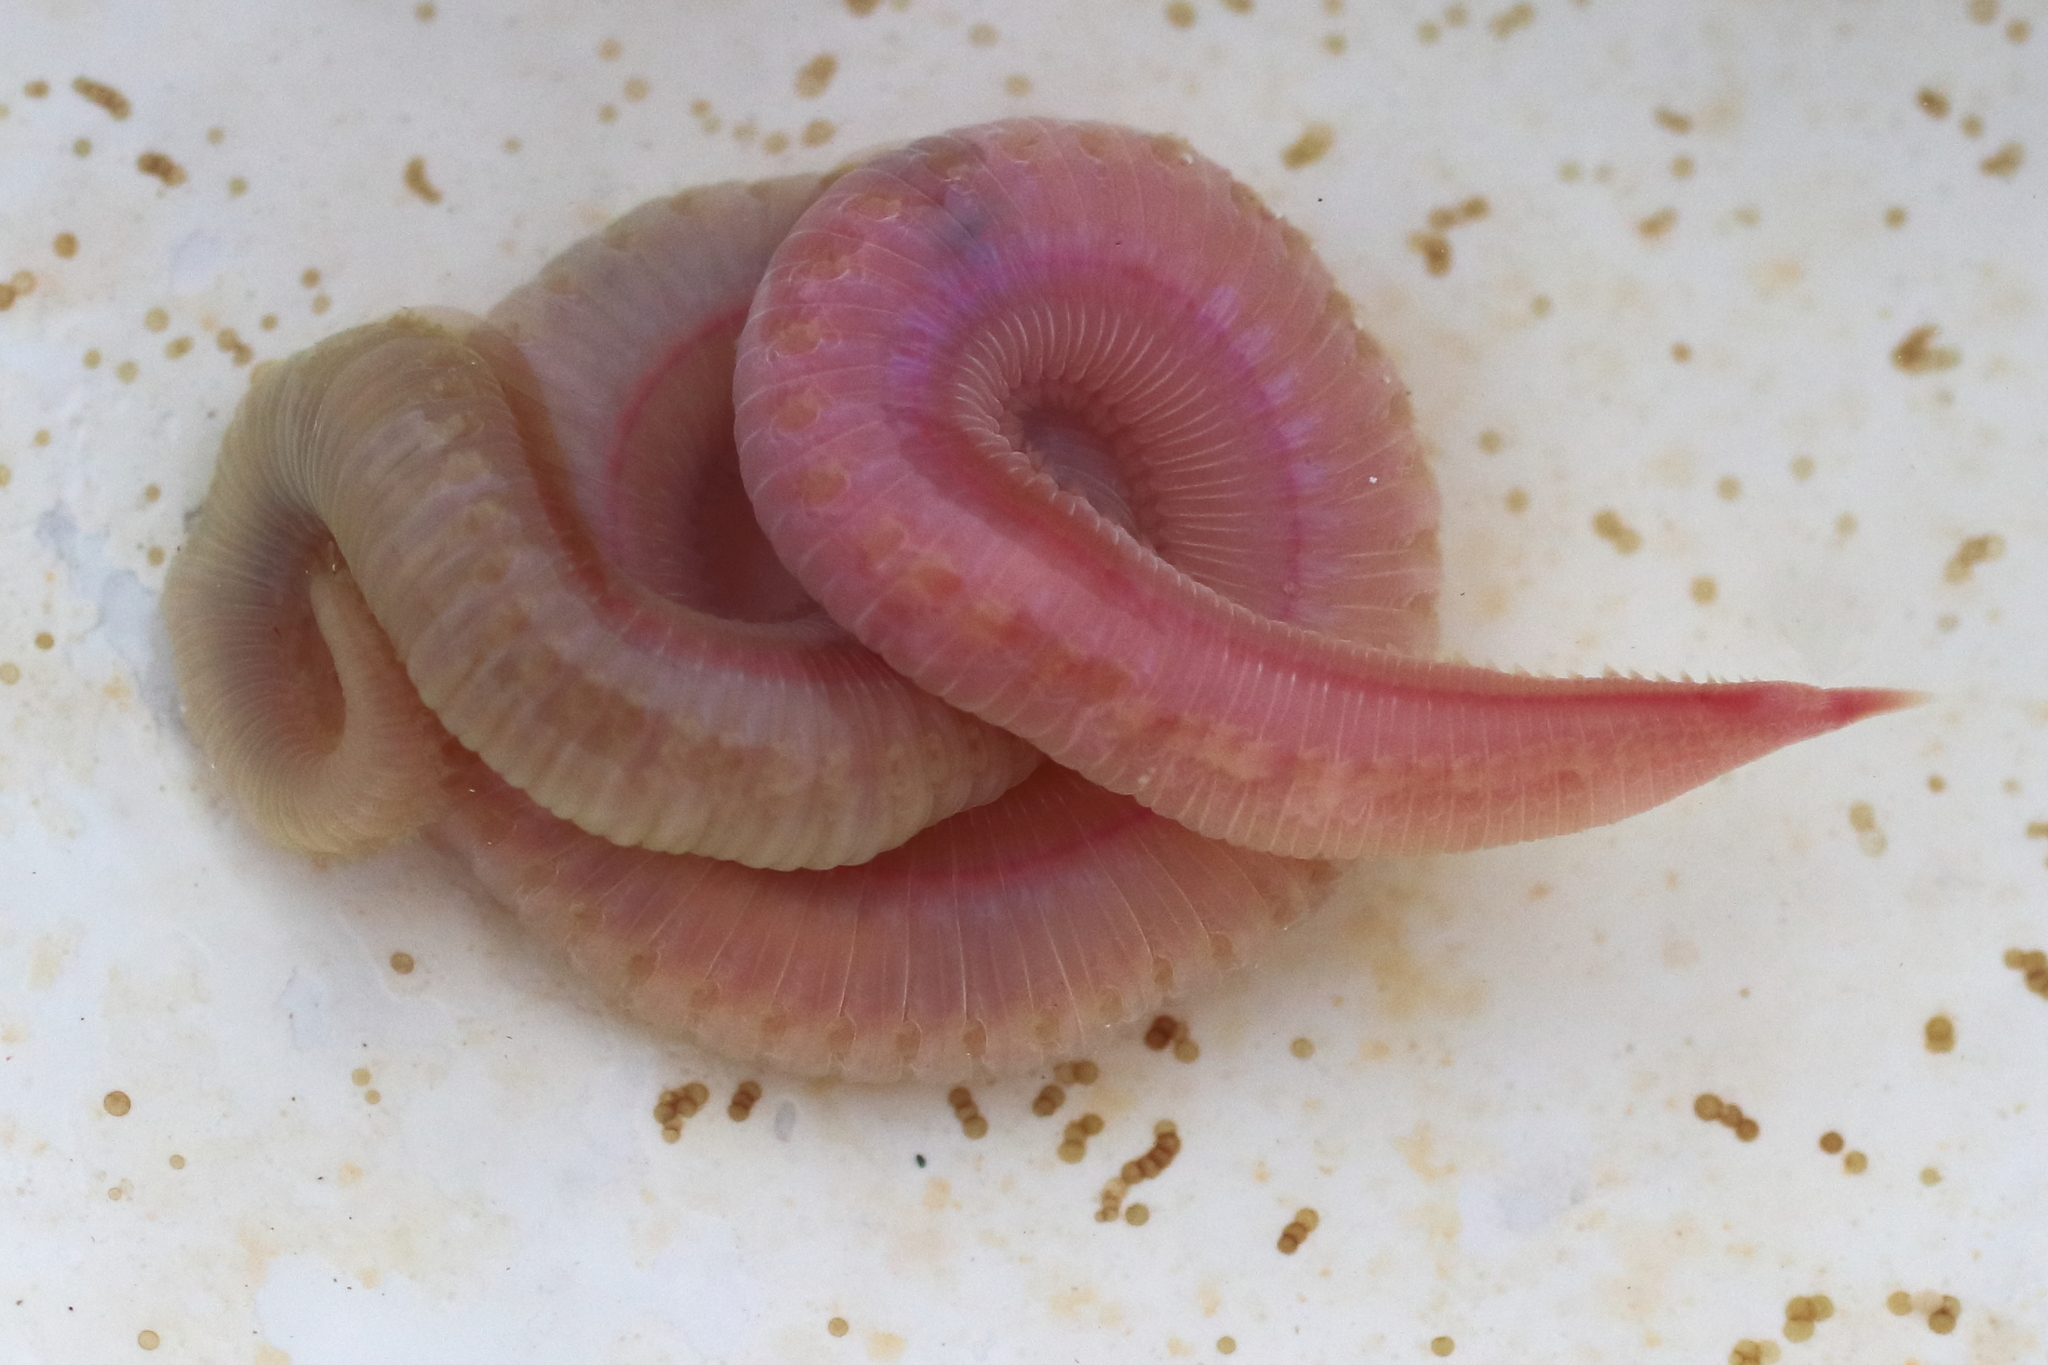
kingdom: Animalia
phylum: Annelida
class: Polychaeta
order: Phyllodocida
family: Glyceridae
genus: Hemipodia
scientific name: Hemipodia simplex
